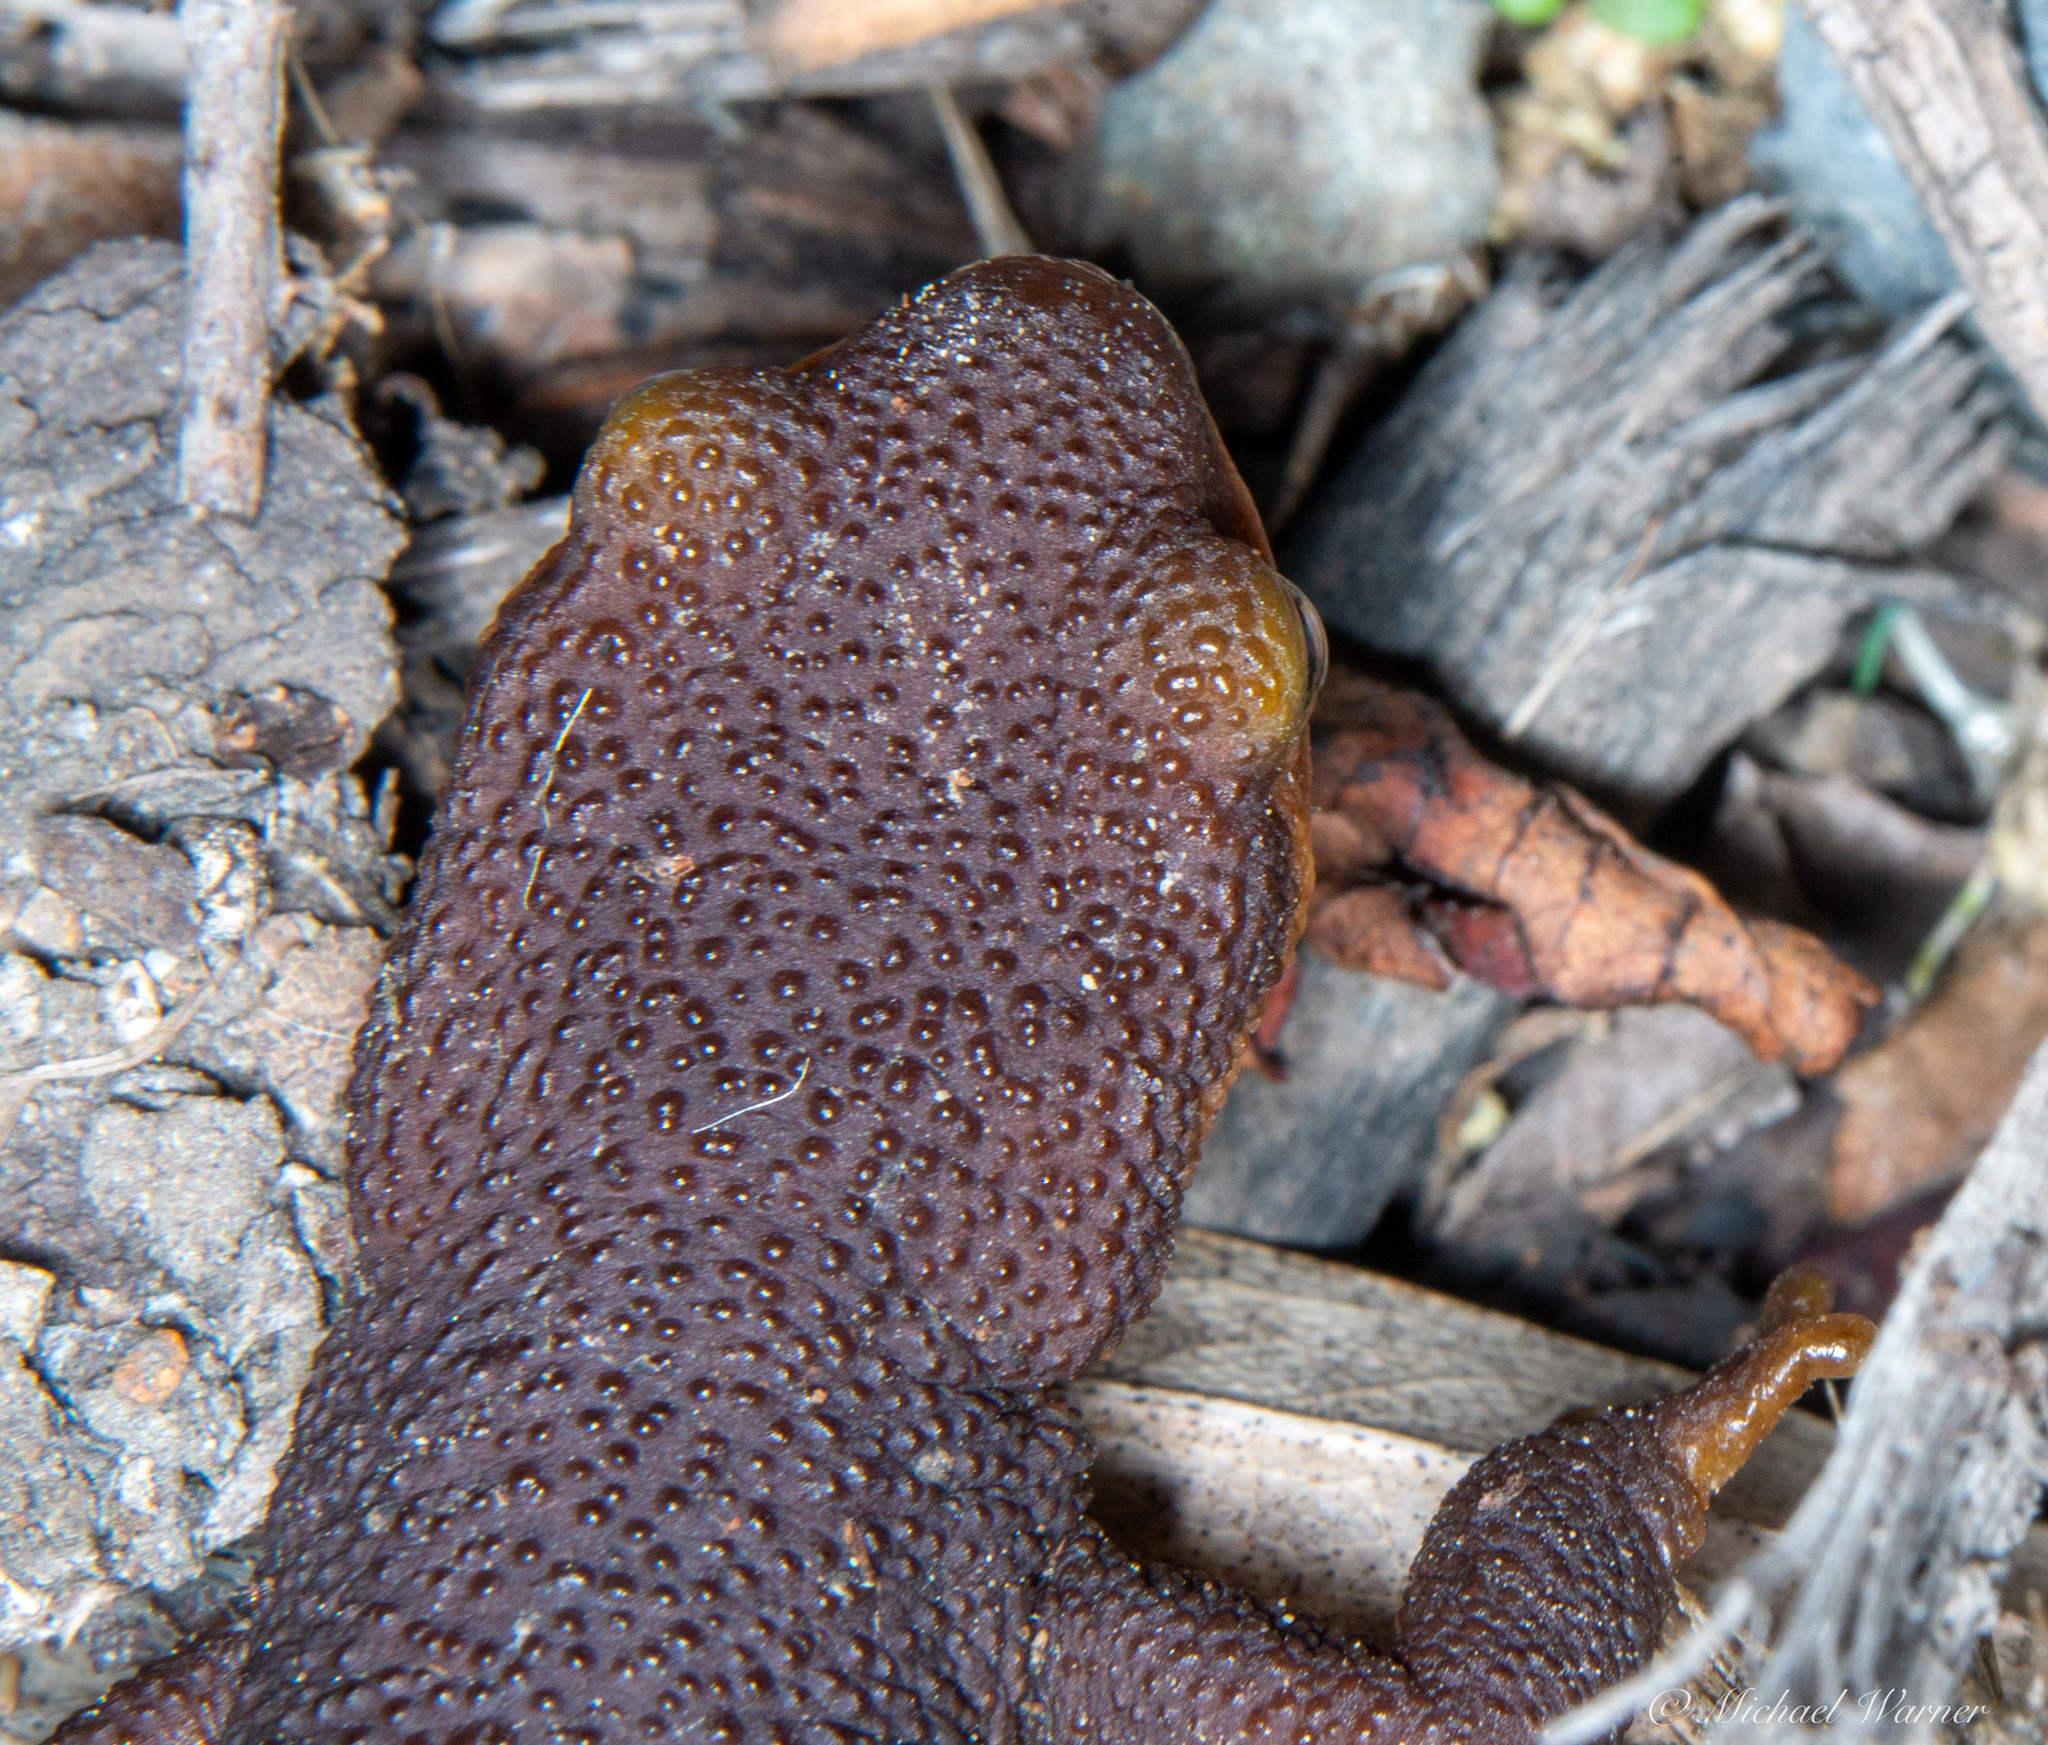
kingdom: Animalia
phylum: Chordata
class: Amphibia
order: Caudata
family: Salamandridae
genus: Taricha
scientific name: Taricha torosa
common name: California newt
